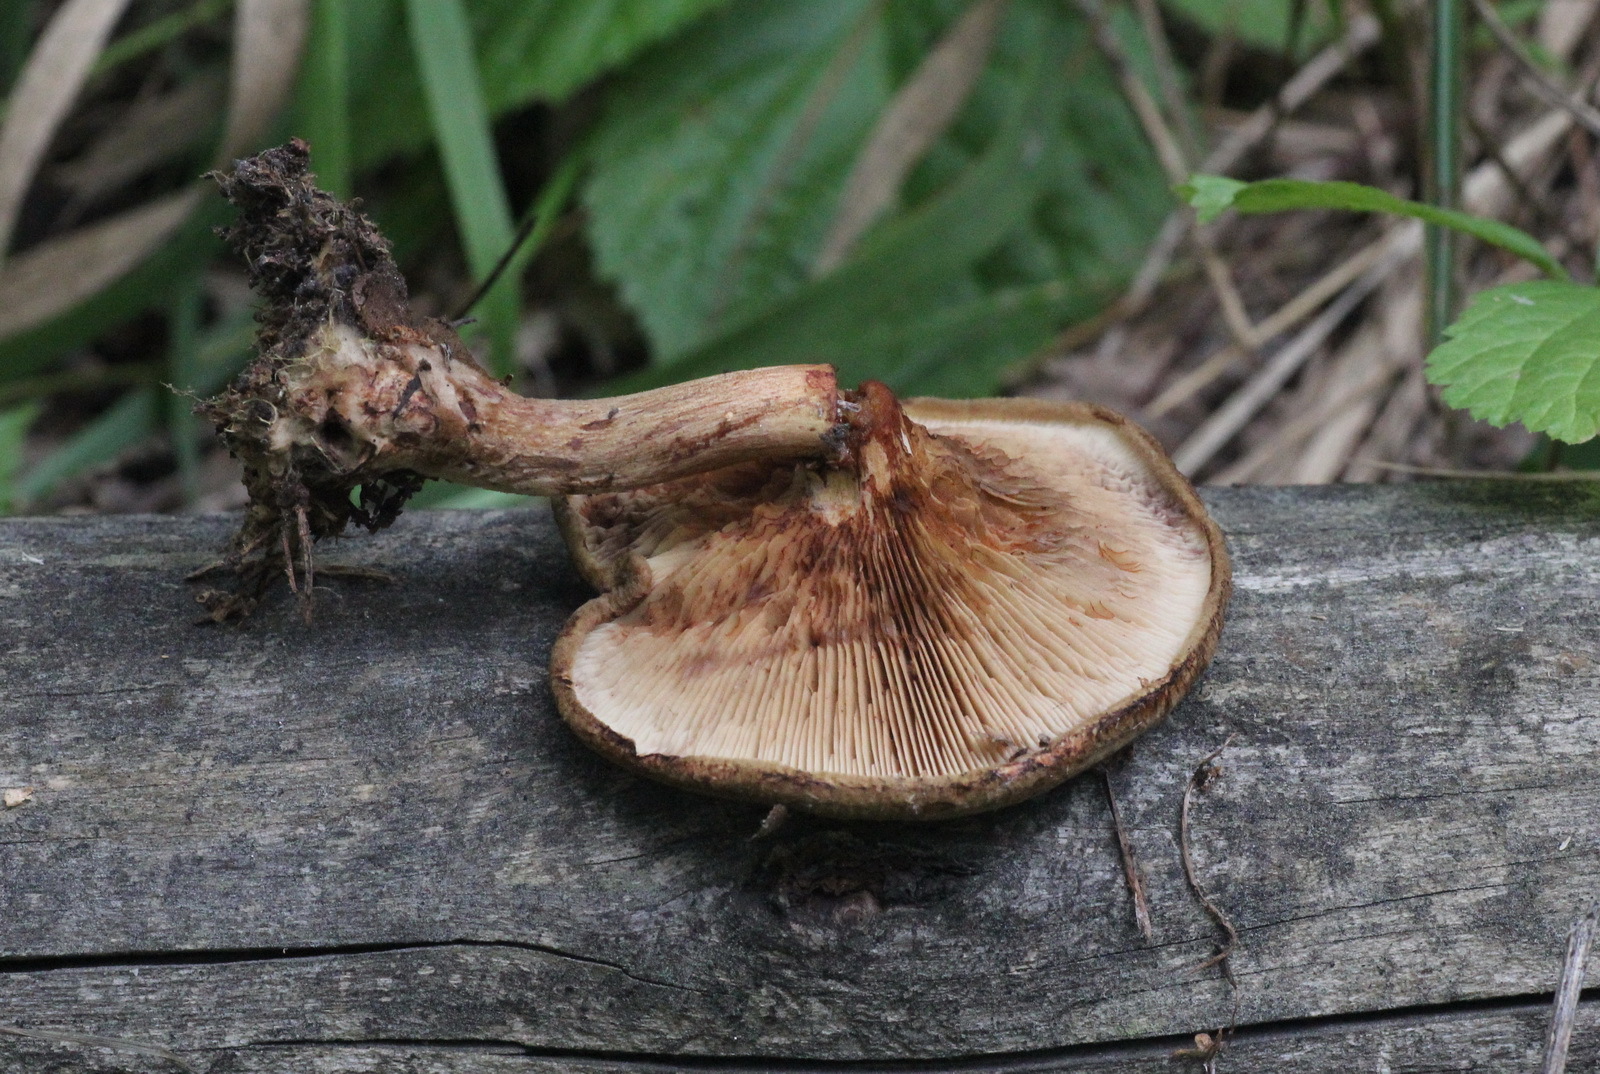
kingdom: Fungi
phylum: Basidiomycota
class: Agaricomycetes
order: Boletales
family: Paxillaceae
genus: Paxillus
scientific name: Paxillus involutus
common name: Brown roll rim
